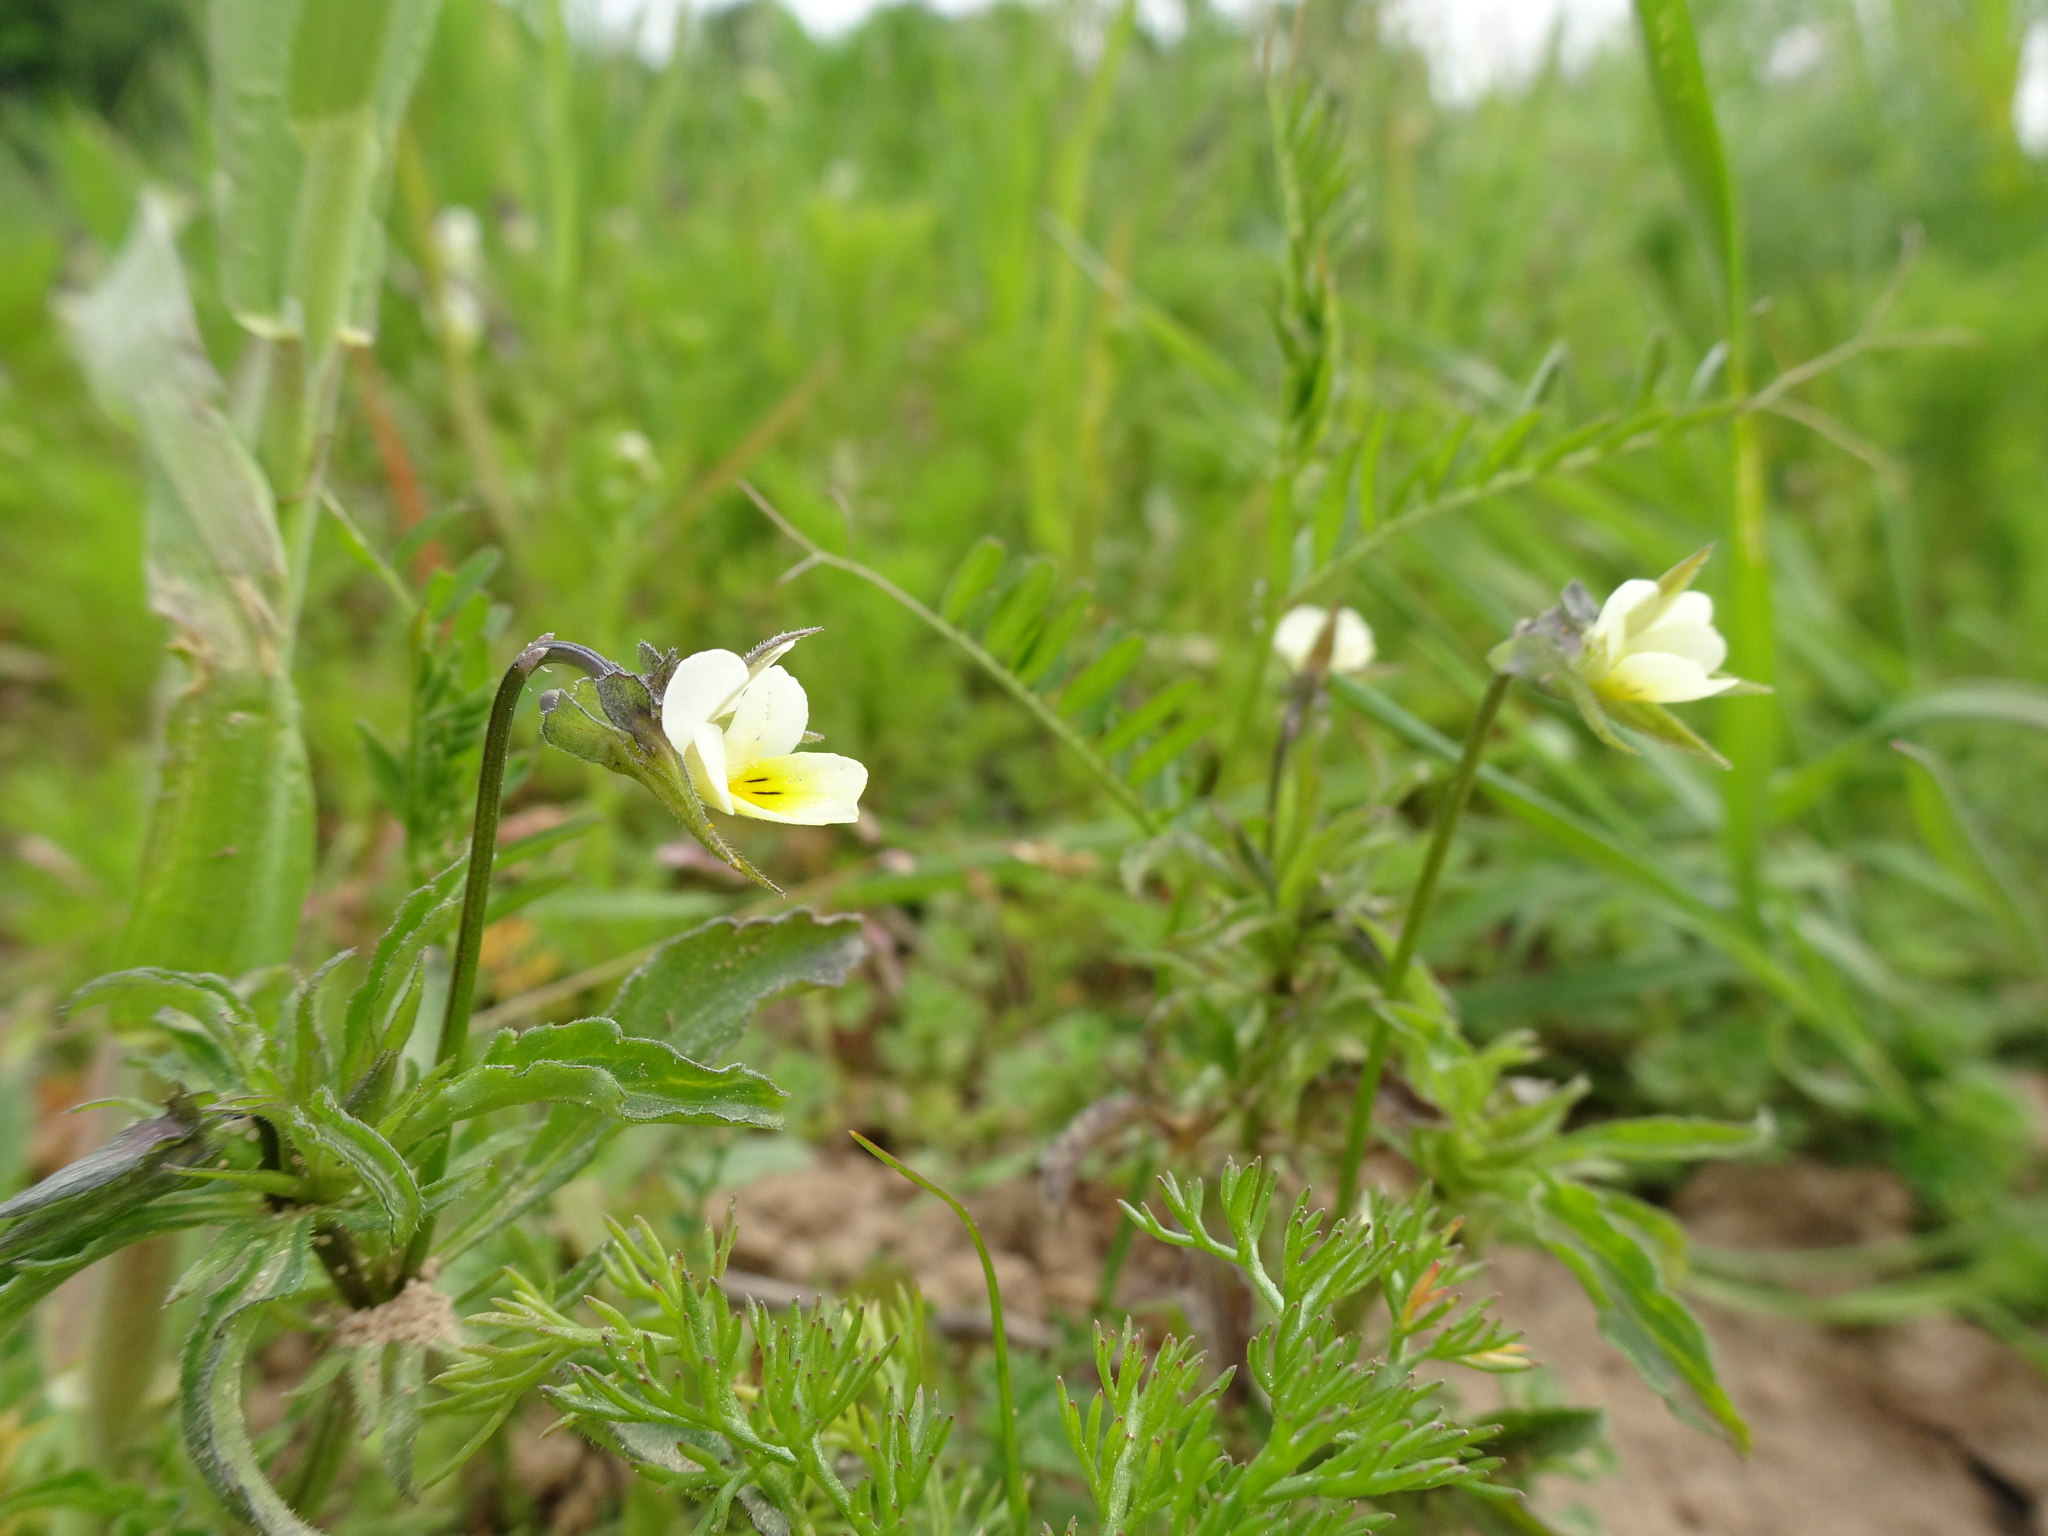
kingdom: Plantae
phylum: Tracheophyta
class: Magnoliopsida
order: Malpighiales
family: Violaceae
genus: Viola
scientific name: Viola arvensis
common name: Field pansy
